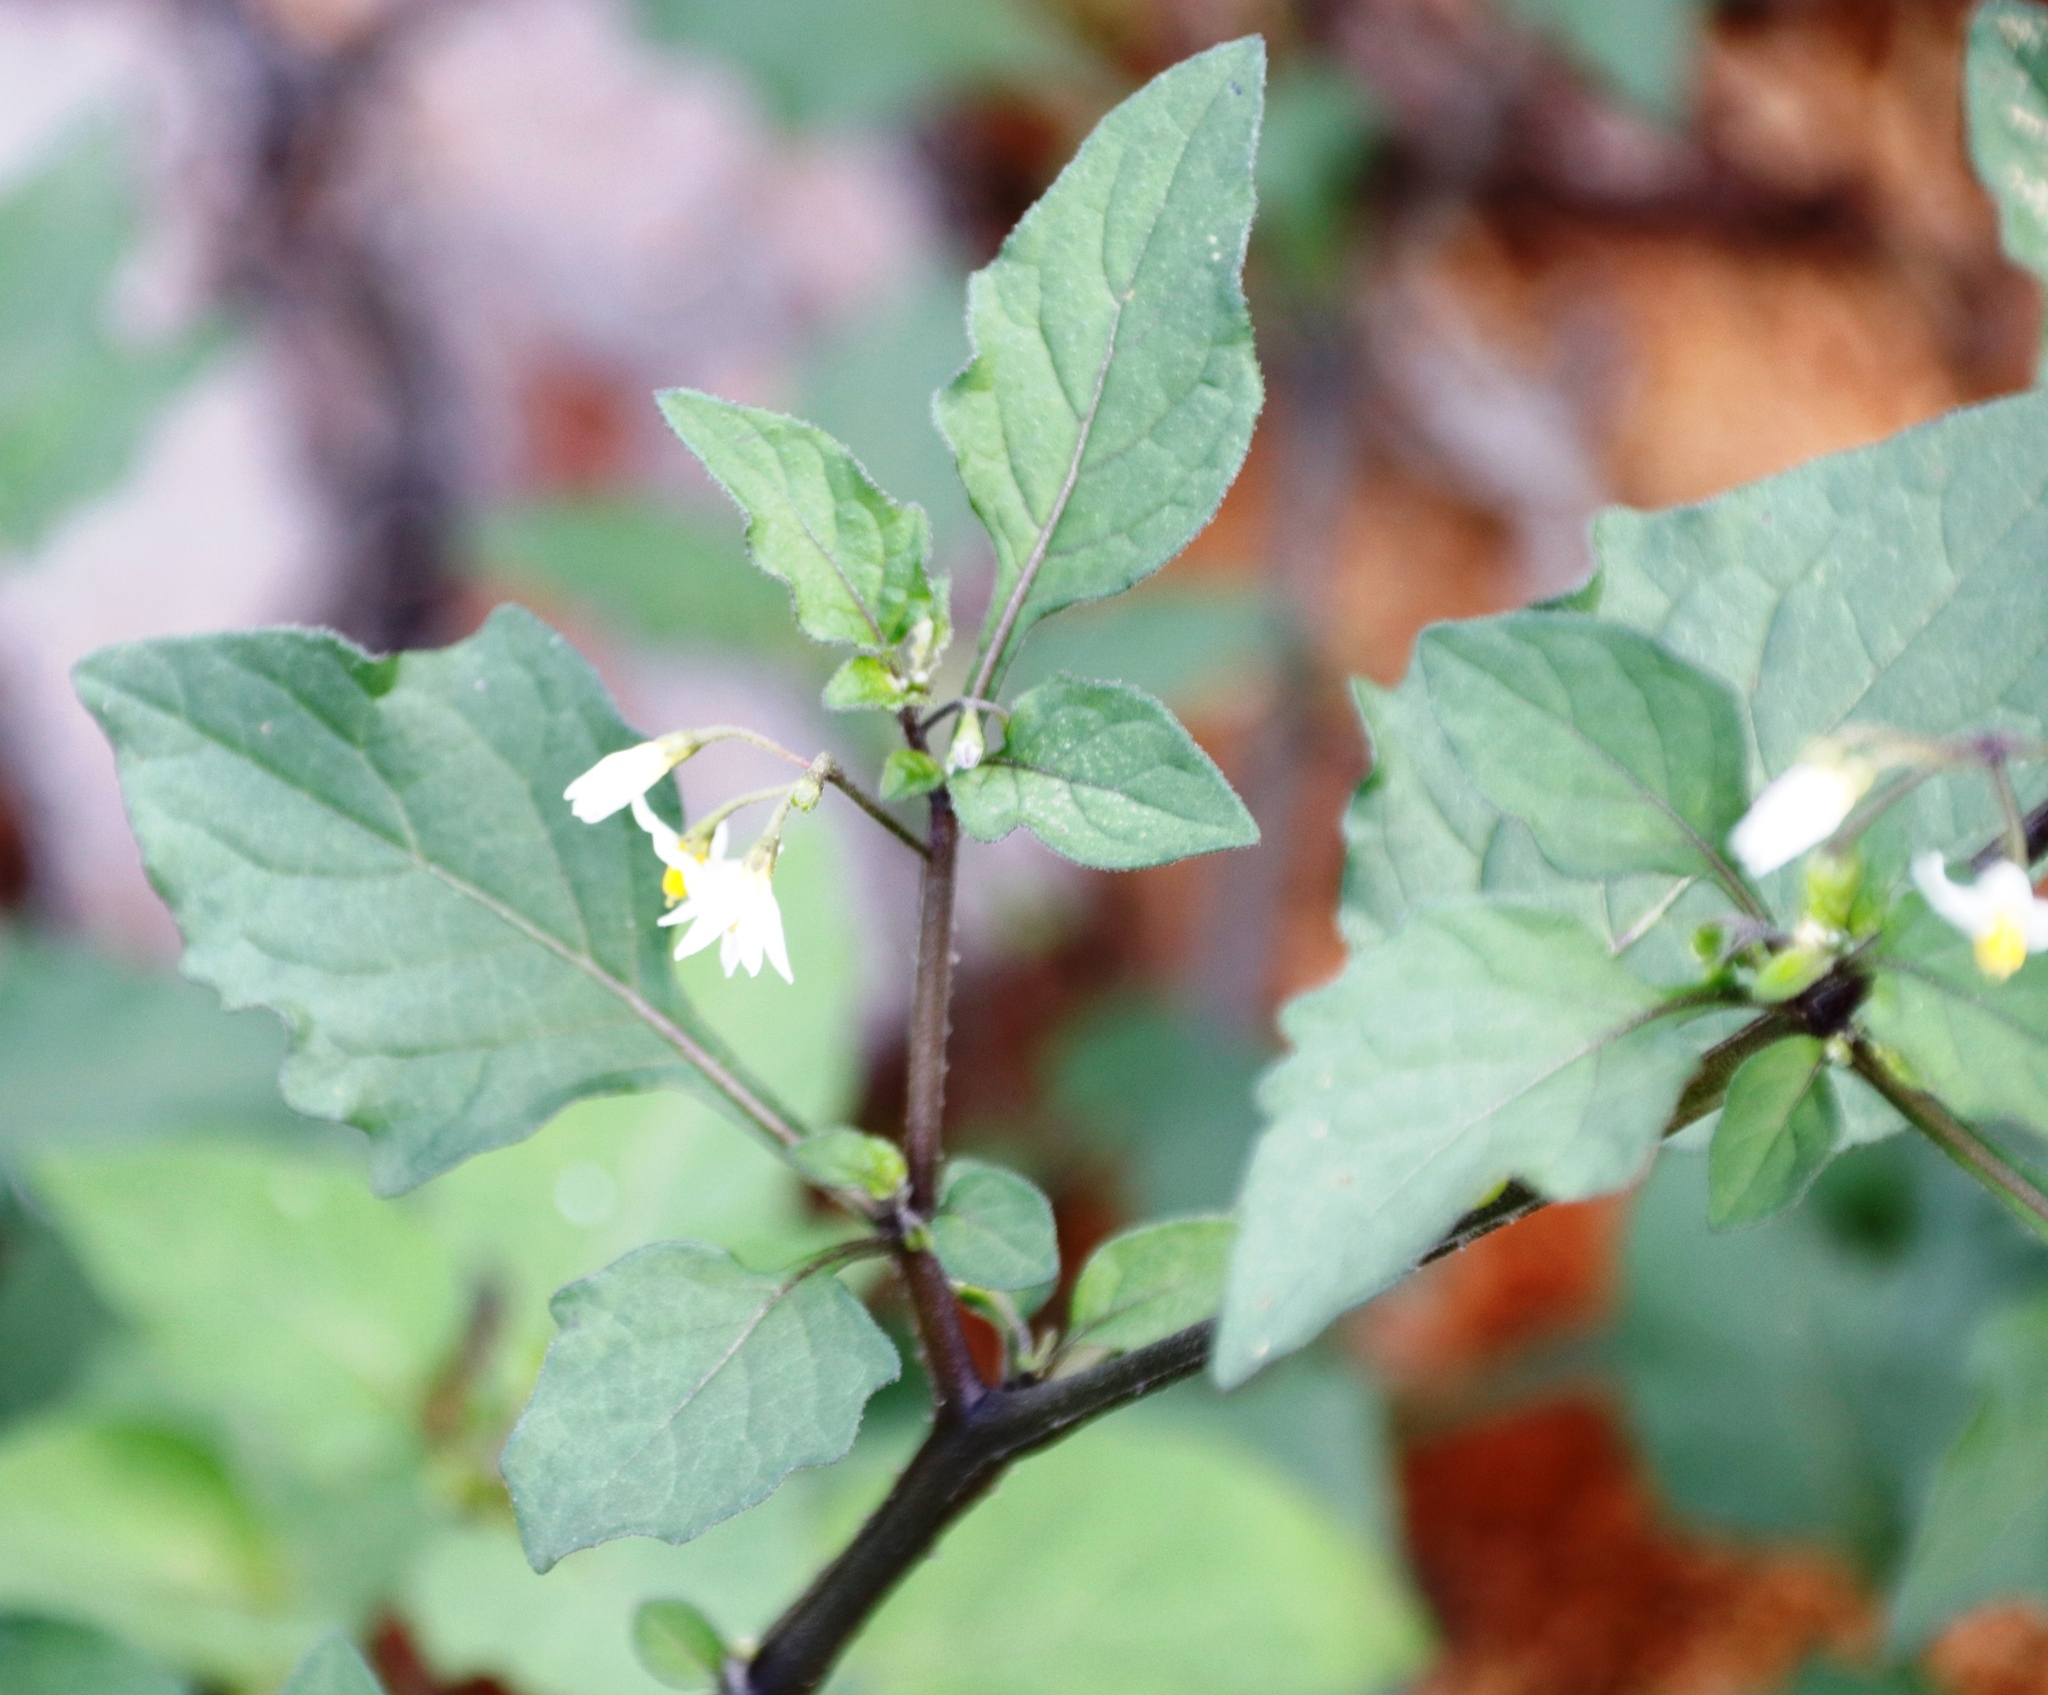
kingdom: Plantae
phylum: Tracheophyta
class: Magnoliopsida
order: Solanales
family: Solanaceae
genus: Solanum
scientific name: Solanum nigrum
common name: Black nightshade
